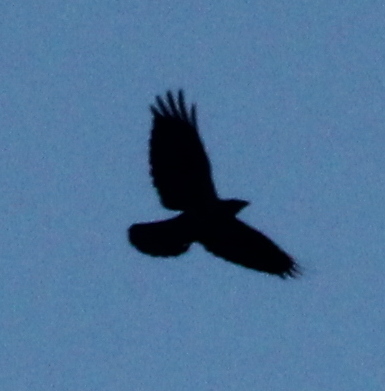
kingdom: Animalia
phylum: Chordata
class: Aves
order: Passeriformes
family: Corvidae
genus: Corvus
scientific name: Corvus brachyrhynchos
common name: American crow
